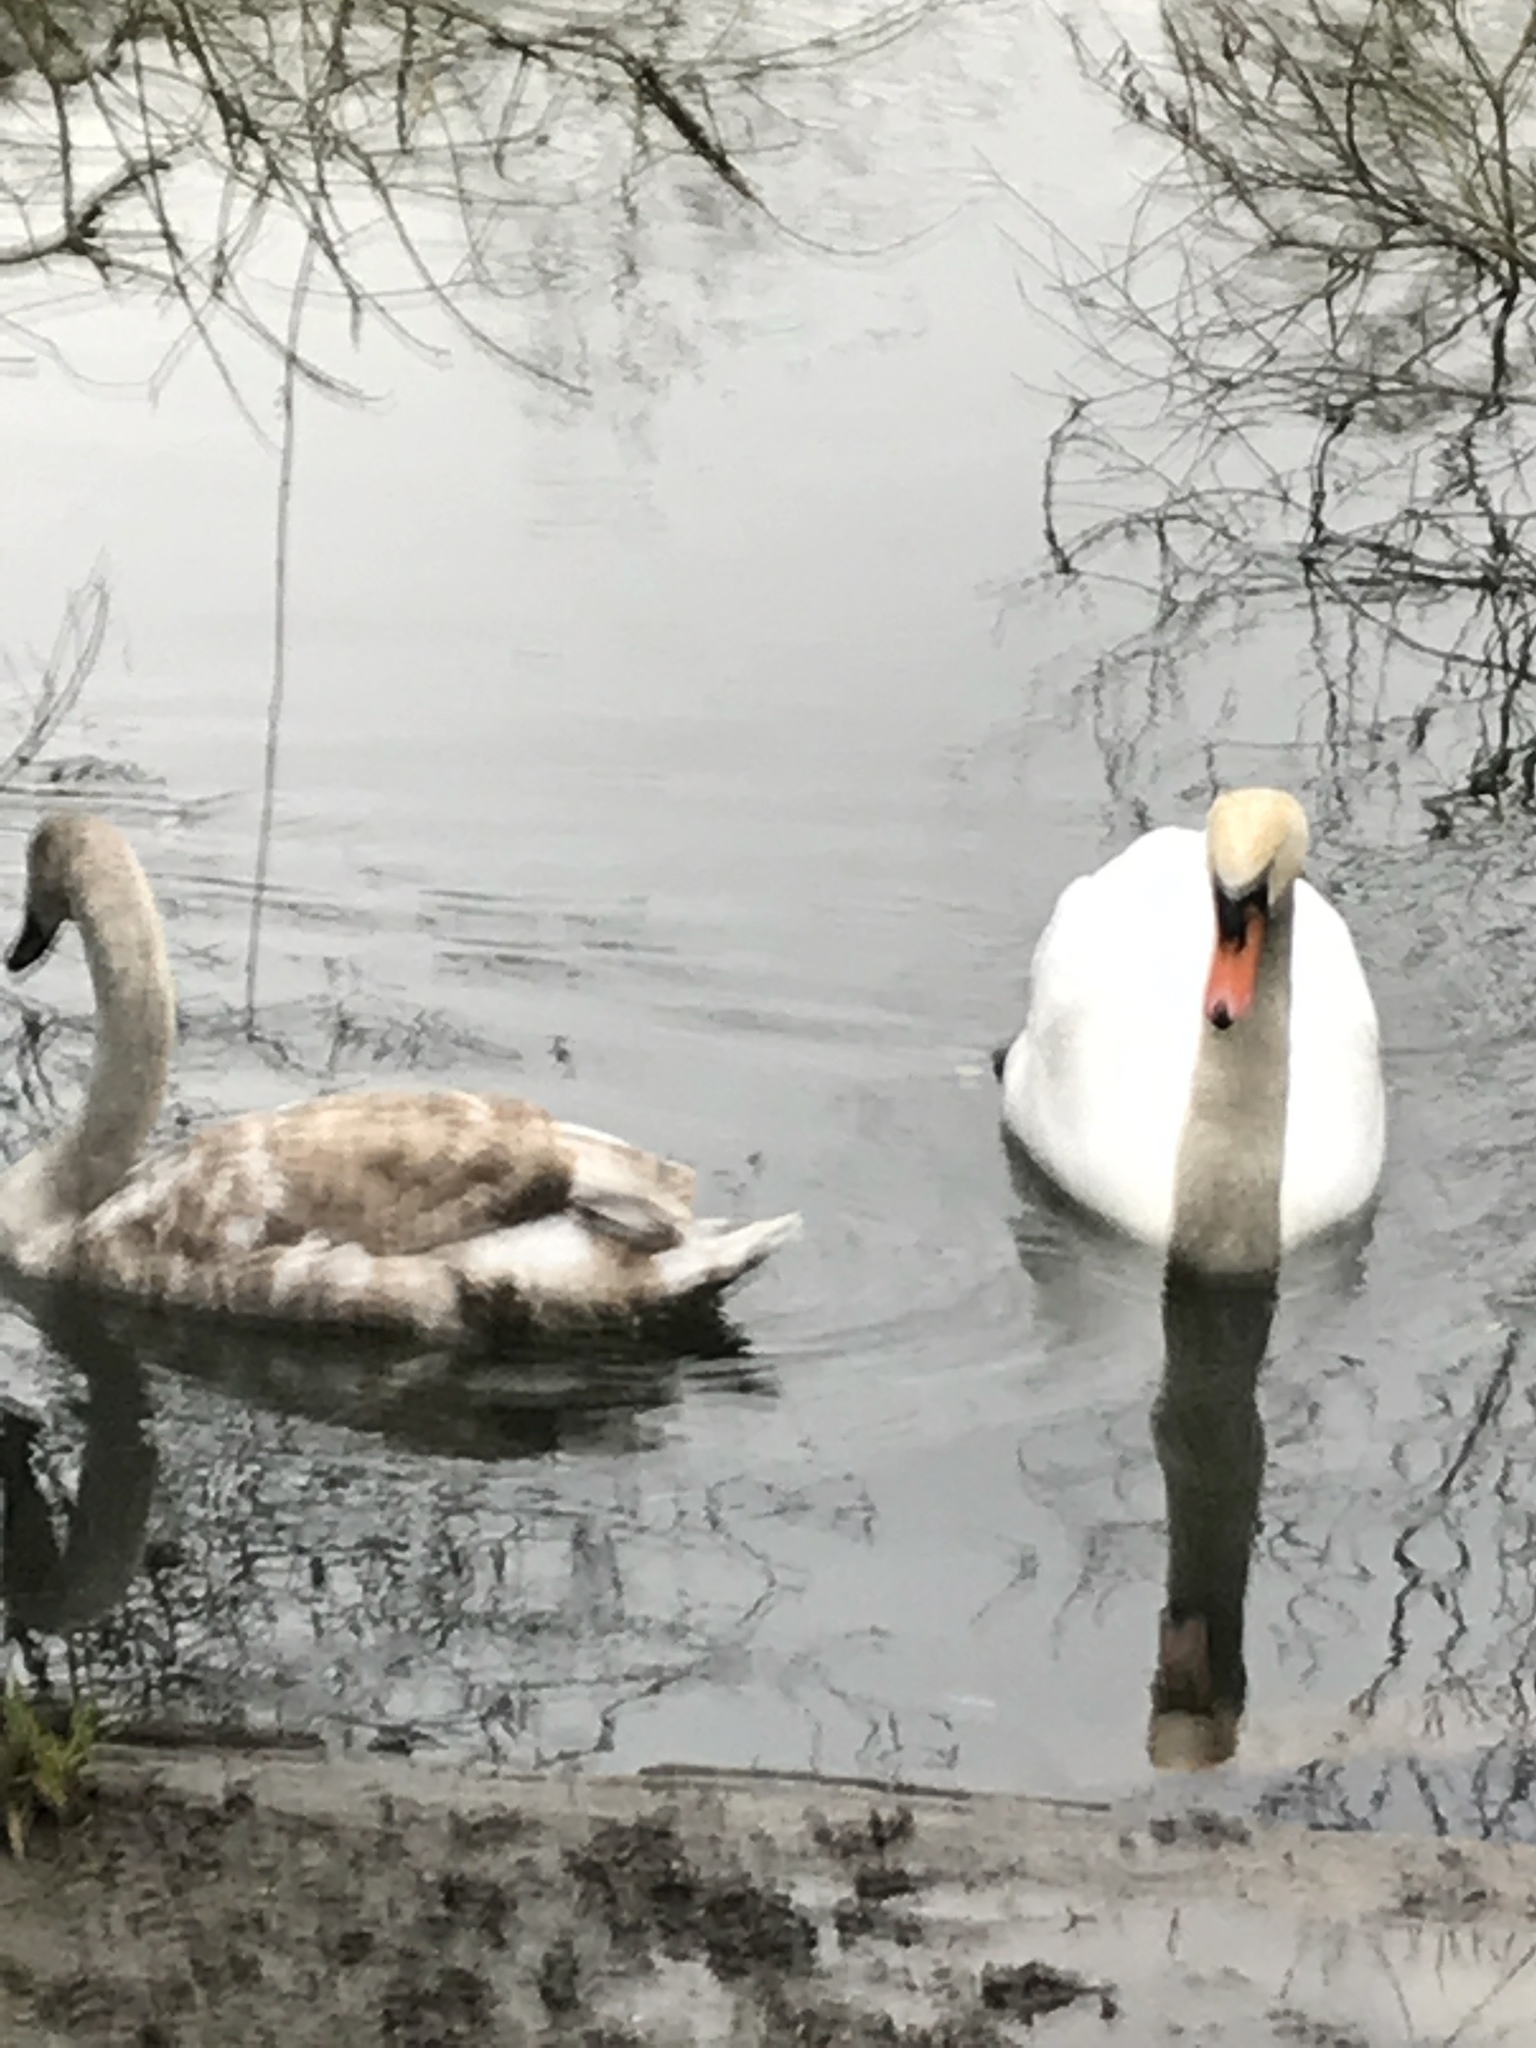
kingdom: Animalia
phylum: Chordata
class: Aves
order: Anseriformes
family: Anatidae
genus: Cygnus
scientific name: Cygnus olor
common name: Mute swan
